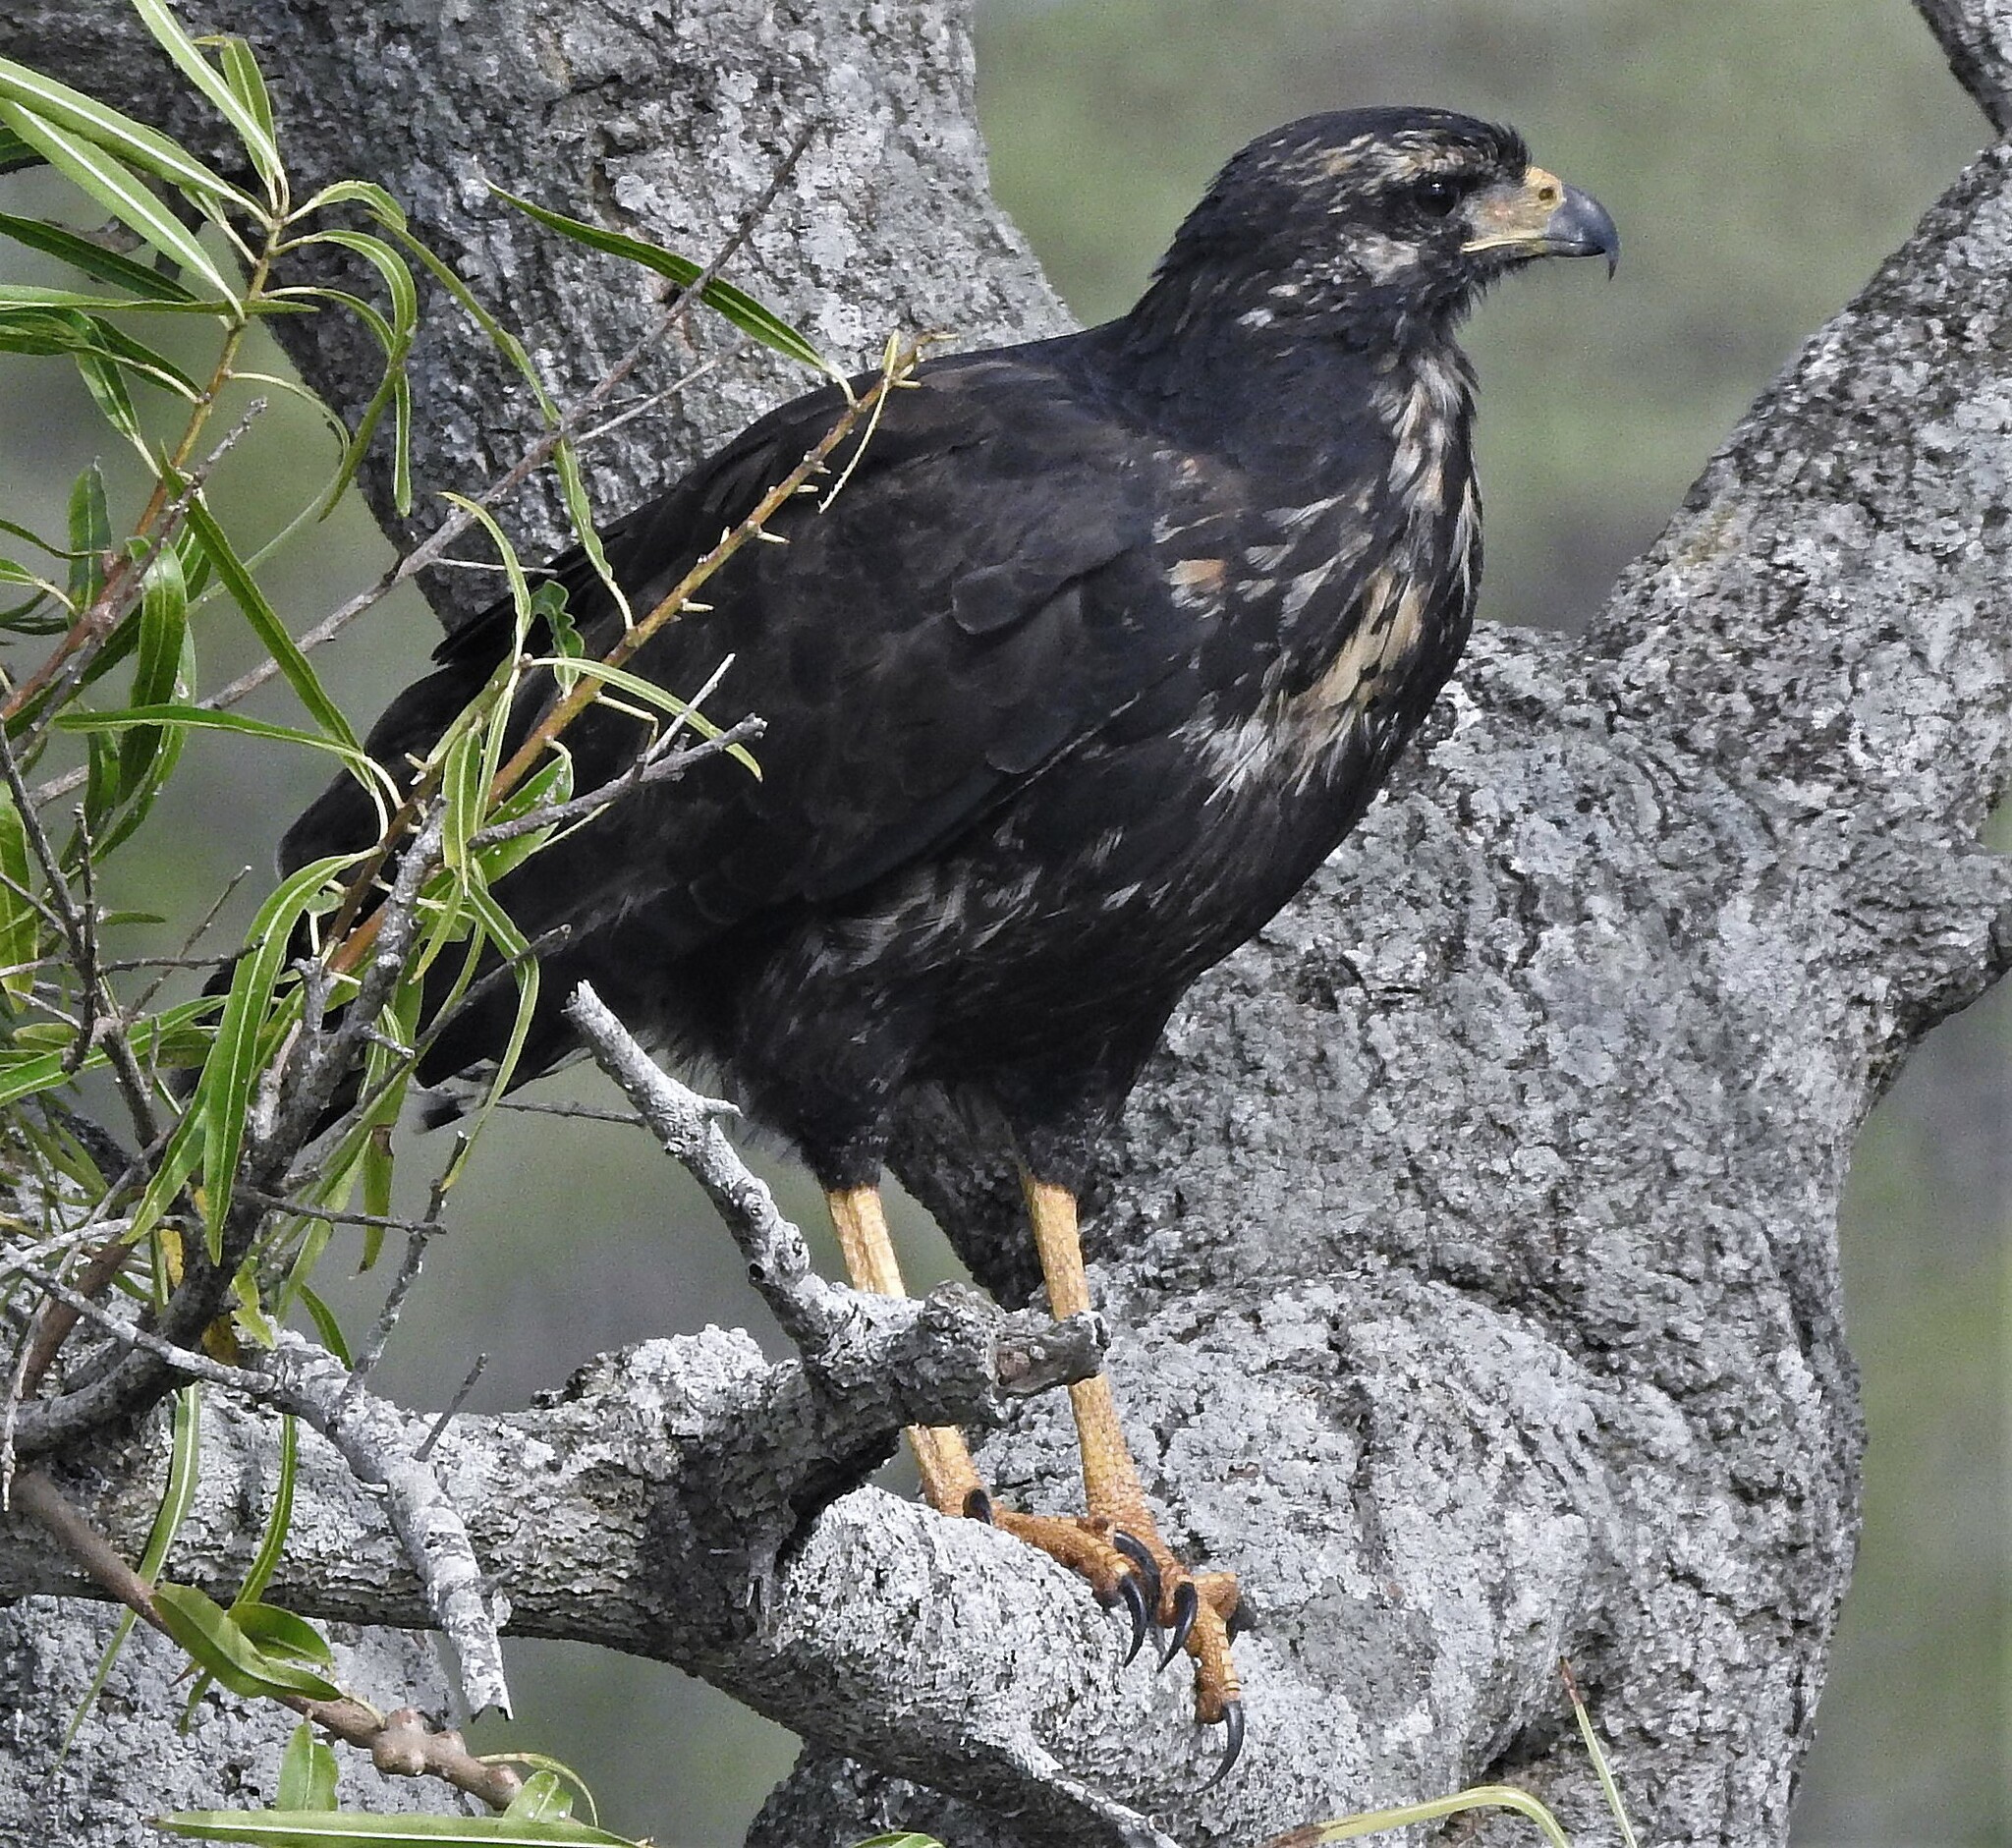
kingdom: Animalia
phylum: Chordata
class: Aves
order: Accipitriformes
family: Accipitridae
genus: Buteogallus
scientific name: Buteogallus urubitinga
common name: Great black hawk
